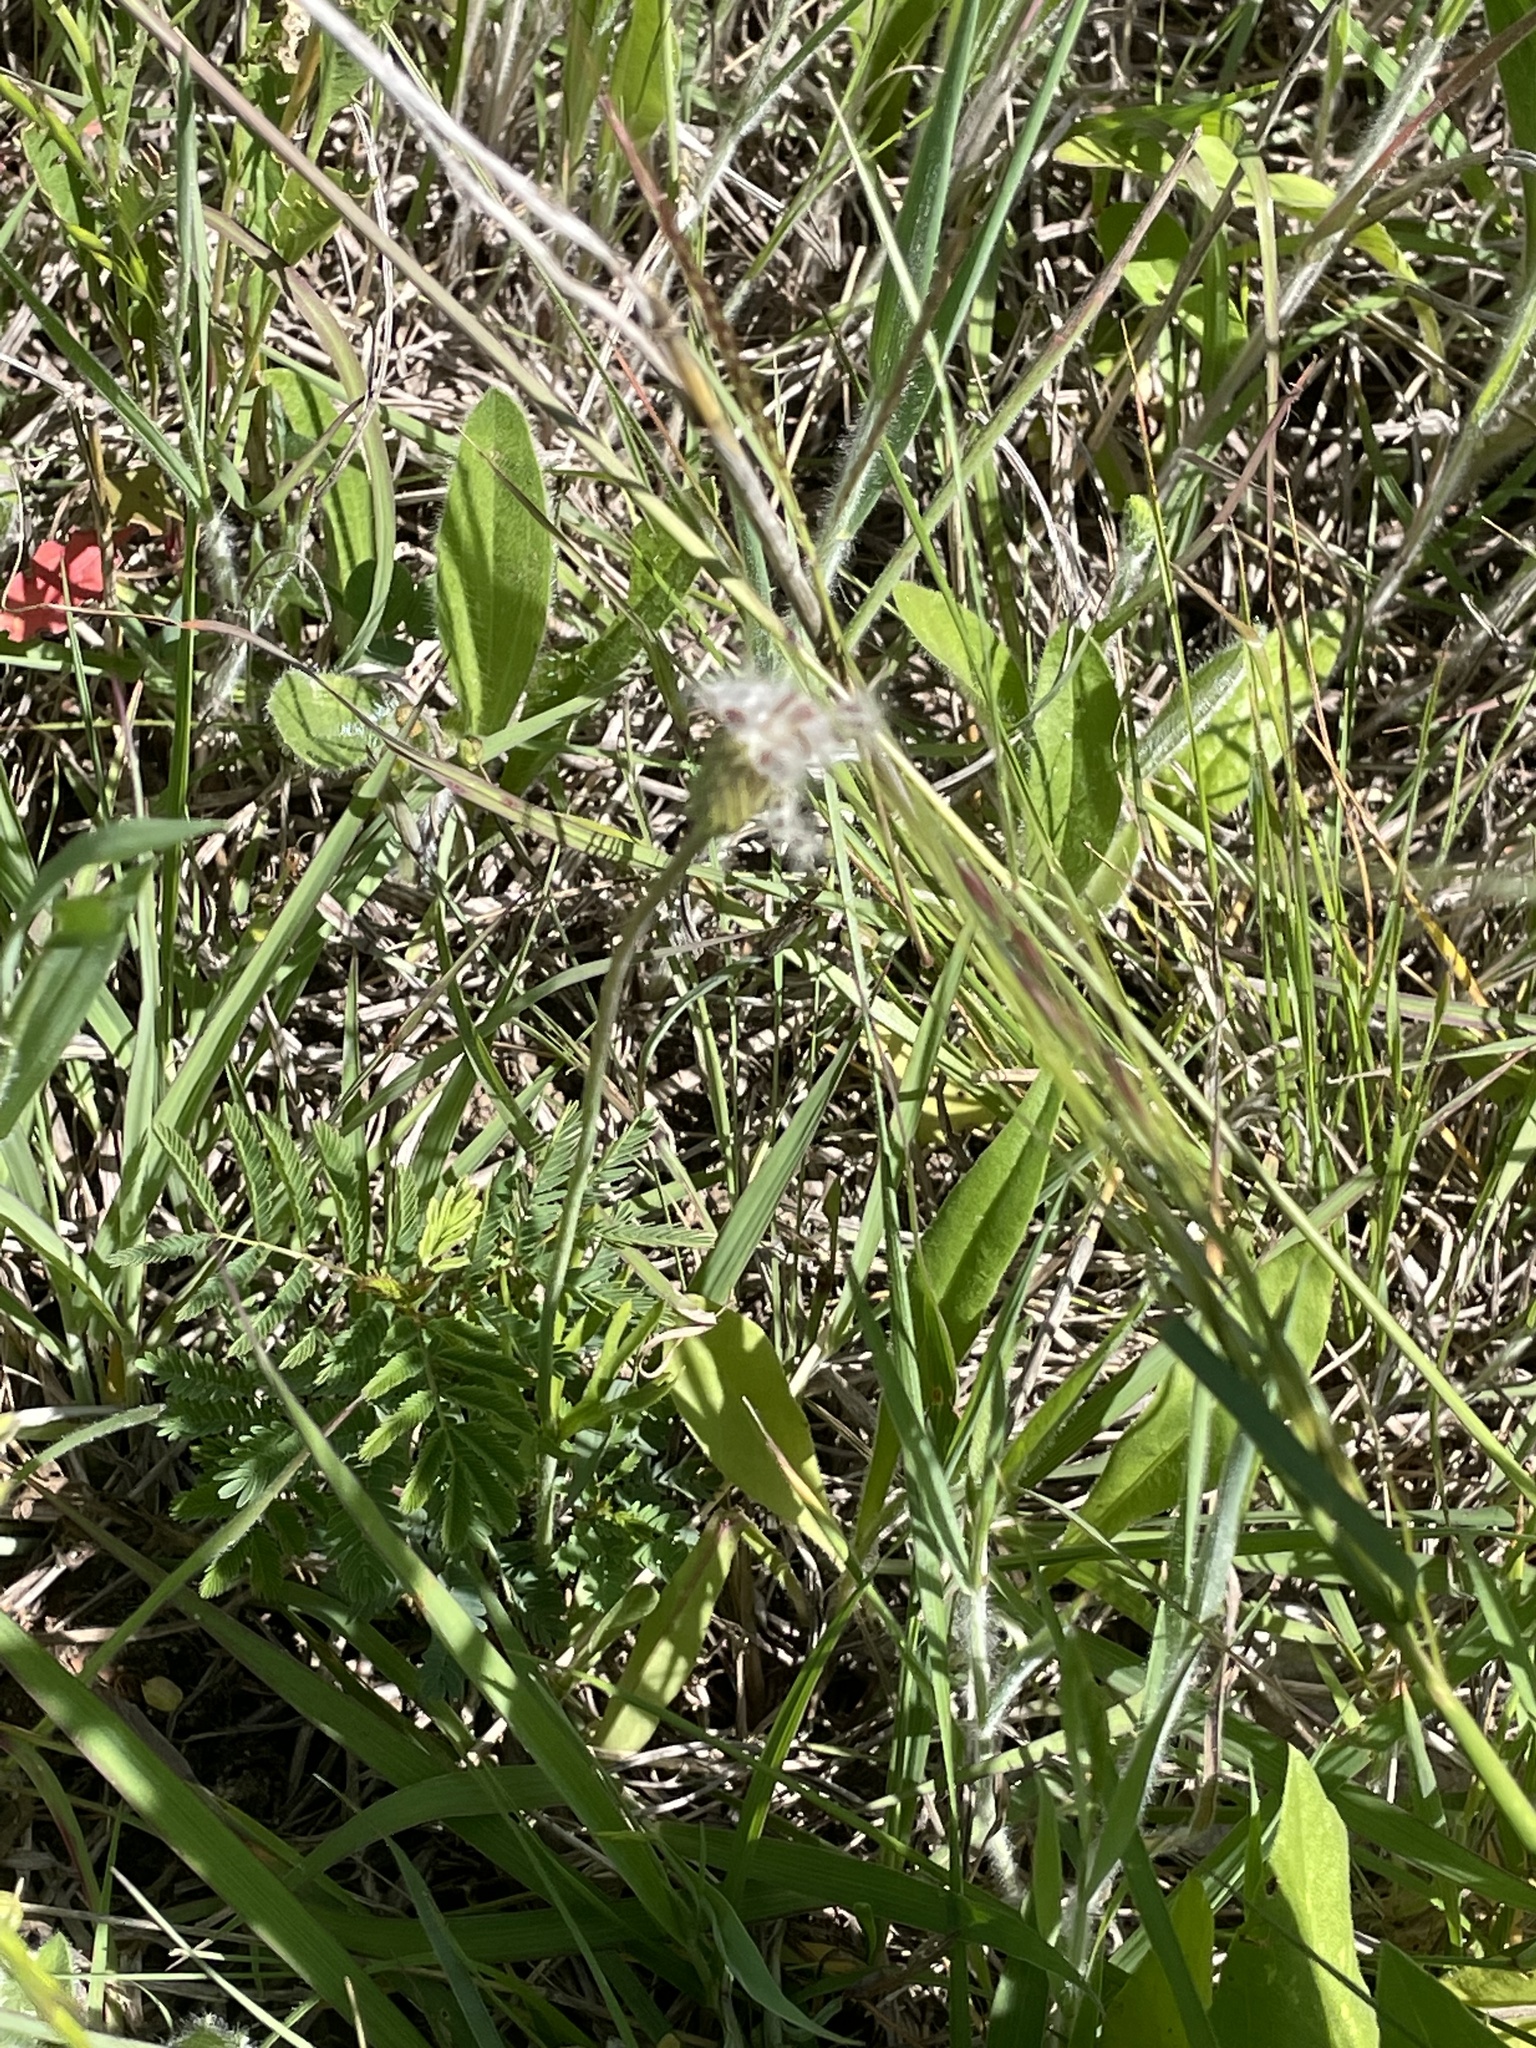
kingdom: Plantae
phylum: Tracheophyta
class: Magnoliopsida
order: Ranunculales
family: Ranunculaceae
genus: Anemone
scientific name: Anemone berlandieri
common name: Ten-petal anemone
